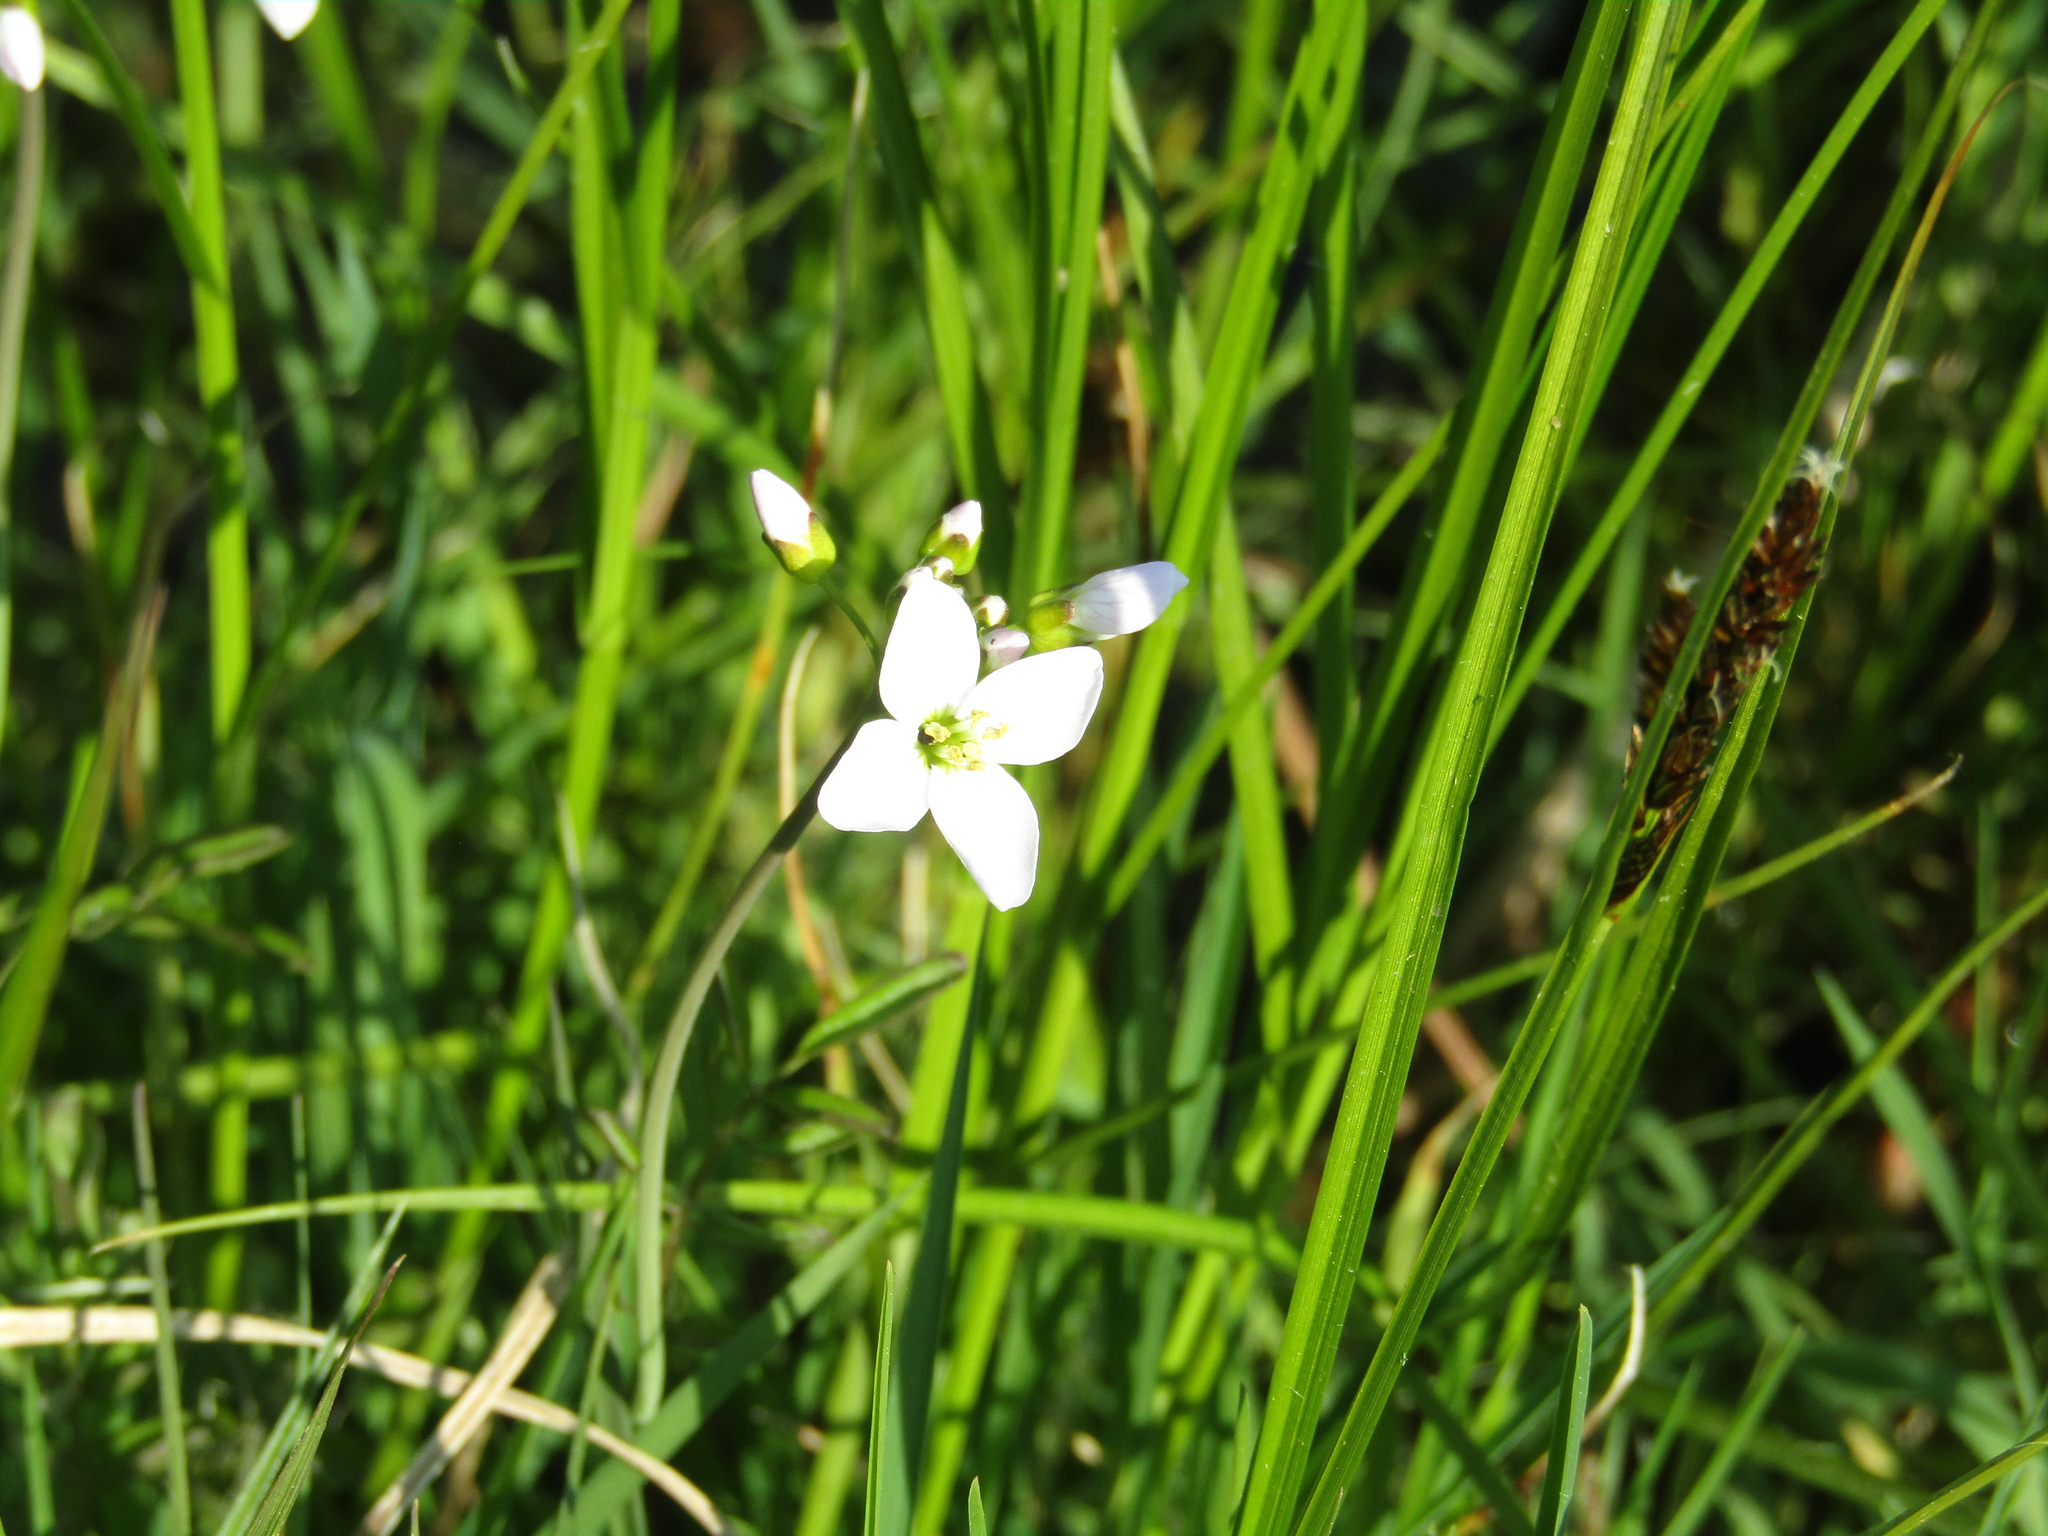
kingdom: Plantae
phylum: Tracheophyta
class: Magnoliopsida
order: Brassicales
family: Brassicaceae
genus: Cardamine
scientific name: Cardamine dentata
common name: Toothed bittercress
